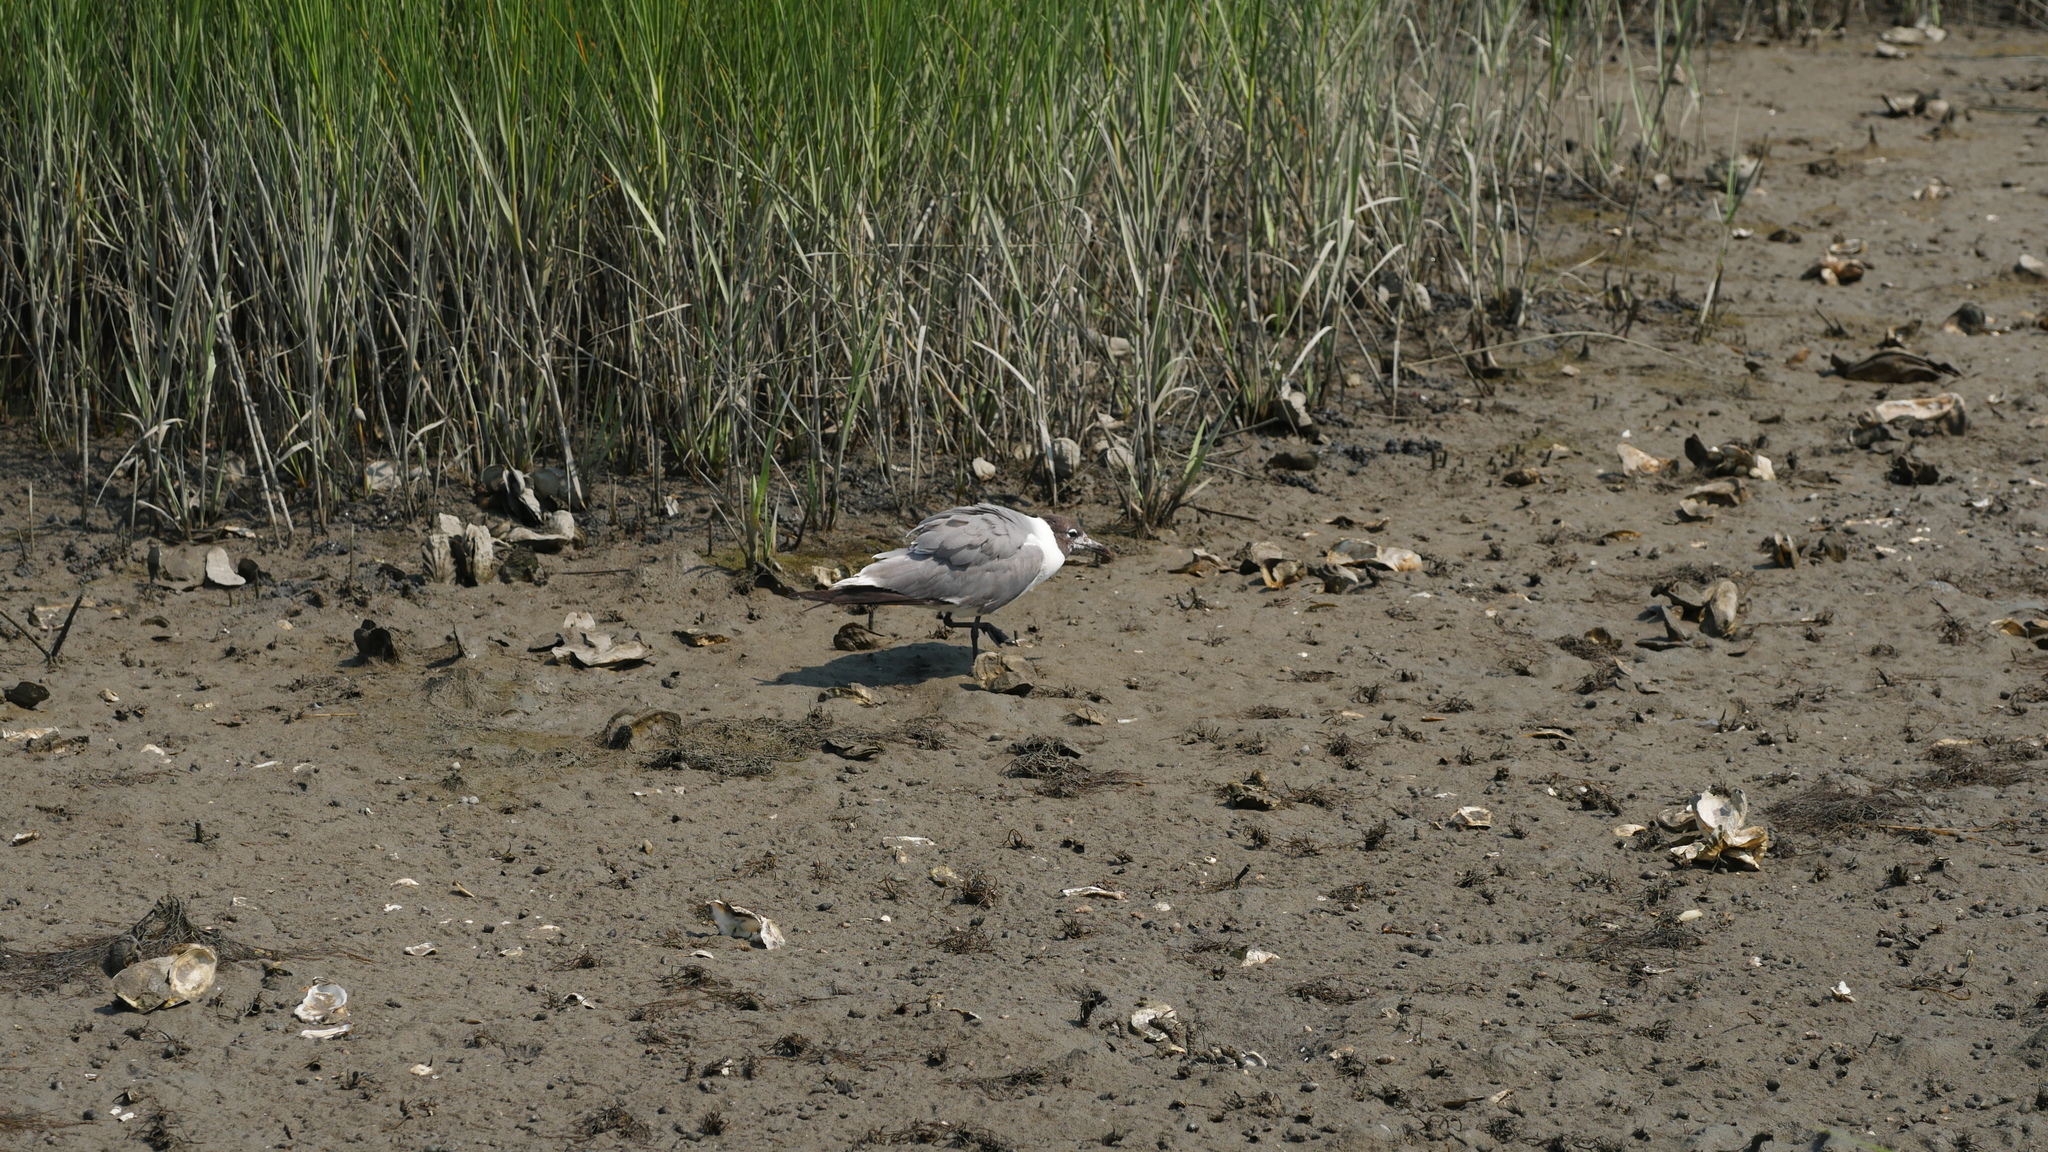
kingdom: Animalia
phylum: Chordata
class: Aves
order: Charadriiformes
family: Laridae
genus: Leucophaeus
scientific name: Leucophaeus atricilla
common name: Laughing gull
